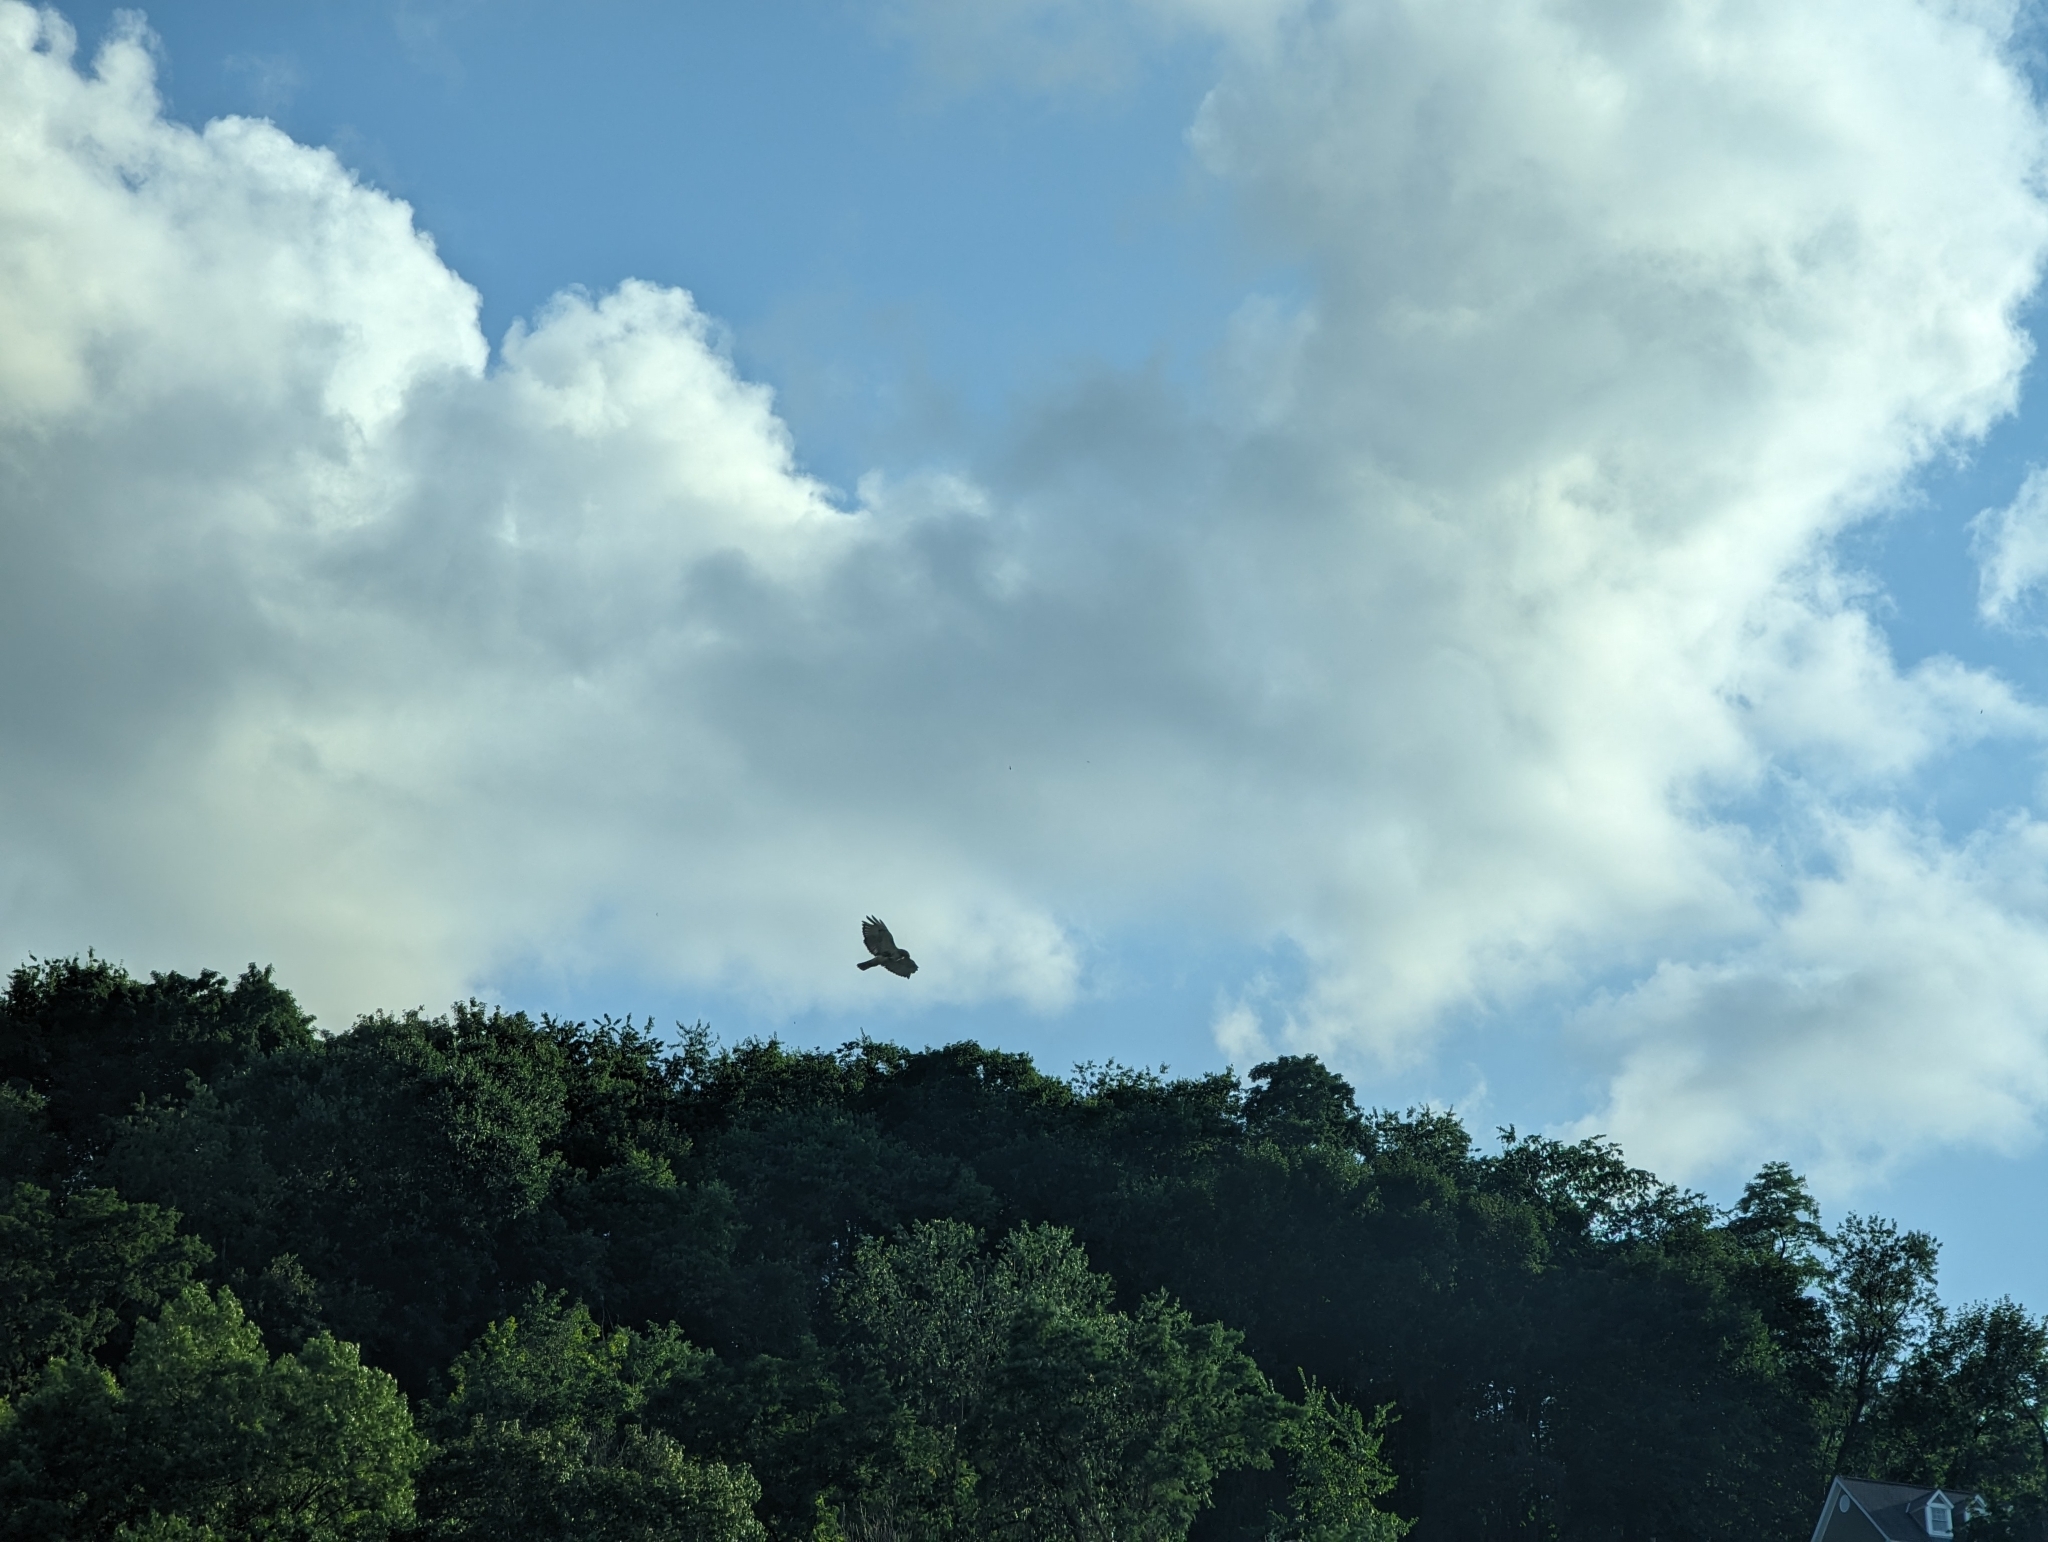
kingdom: Animalia
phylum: Chordata
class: Aves
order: Accipitriformes
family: Cathartidae
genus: Cathartes
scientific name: Cathartes aura
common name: Turkey vulture
